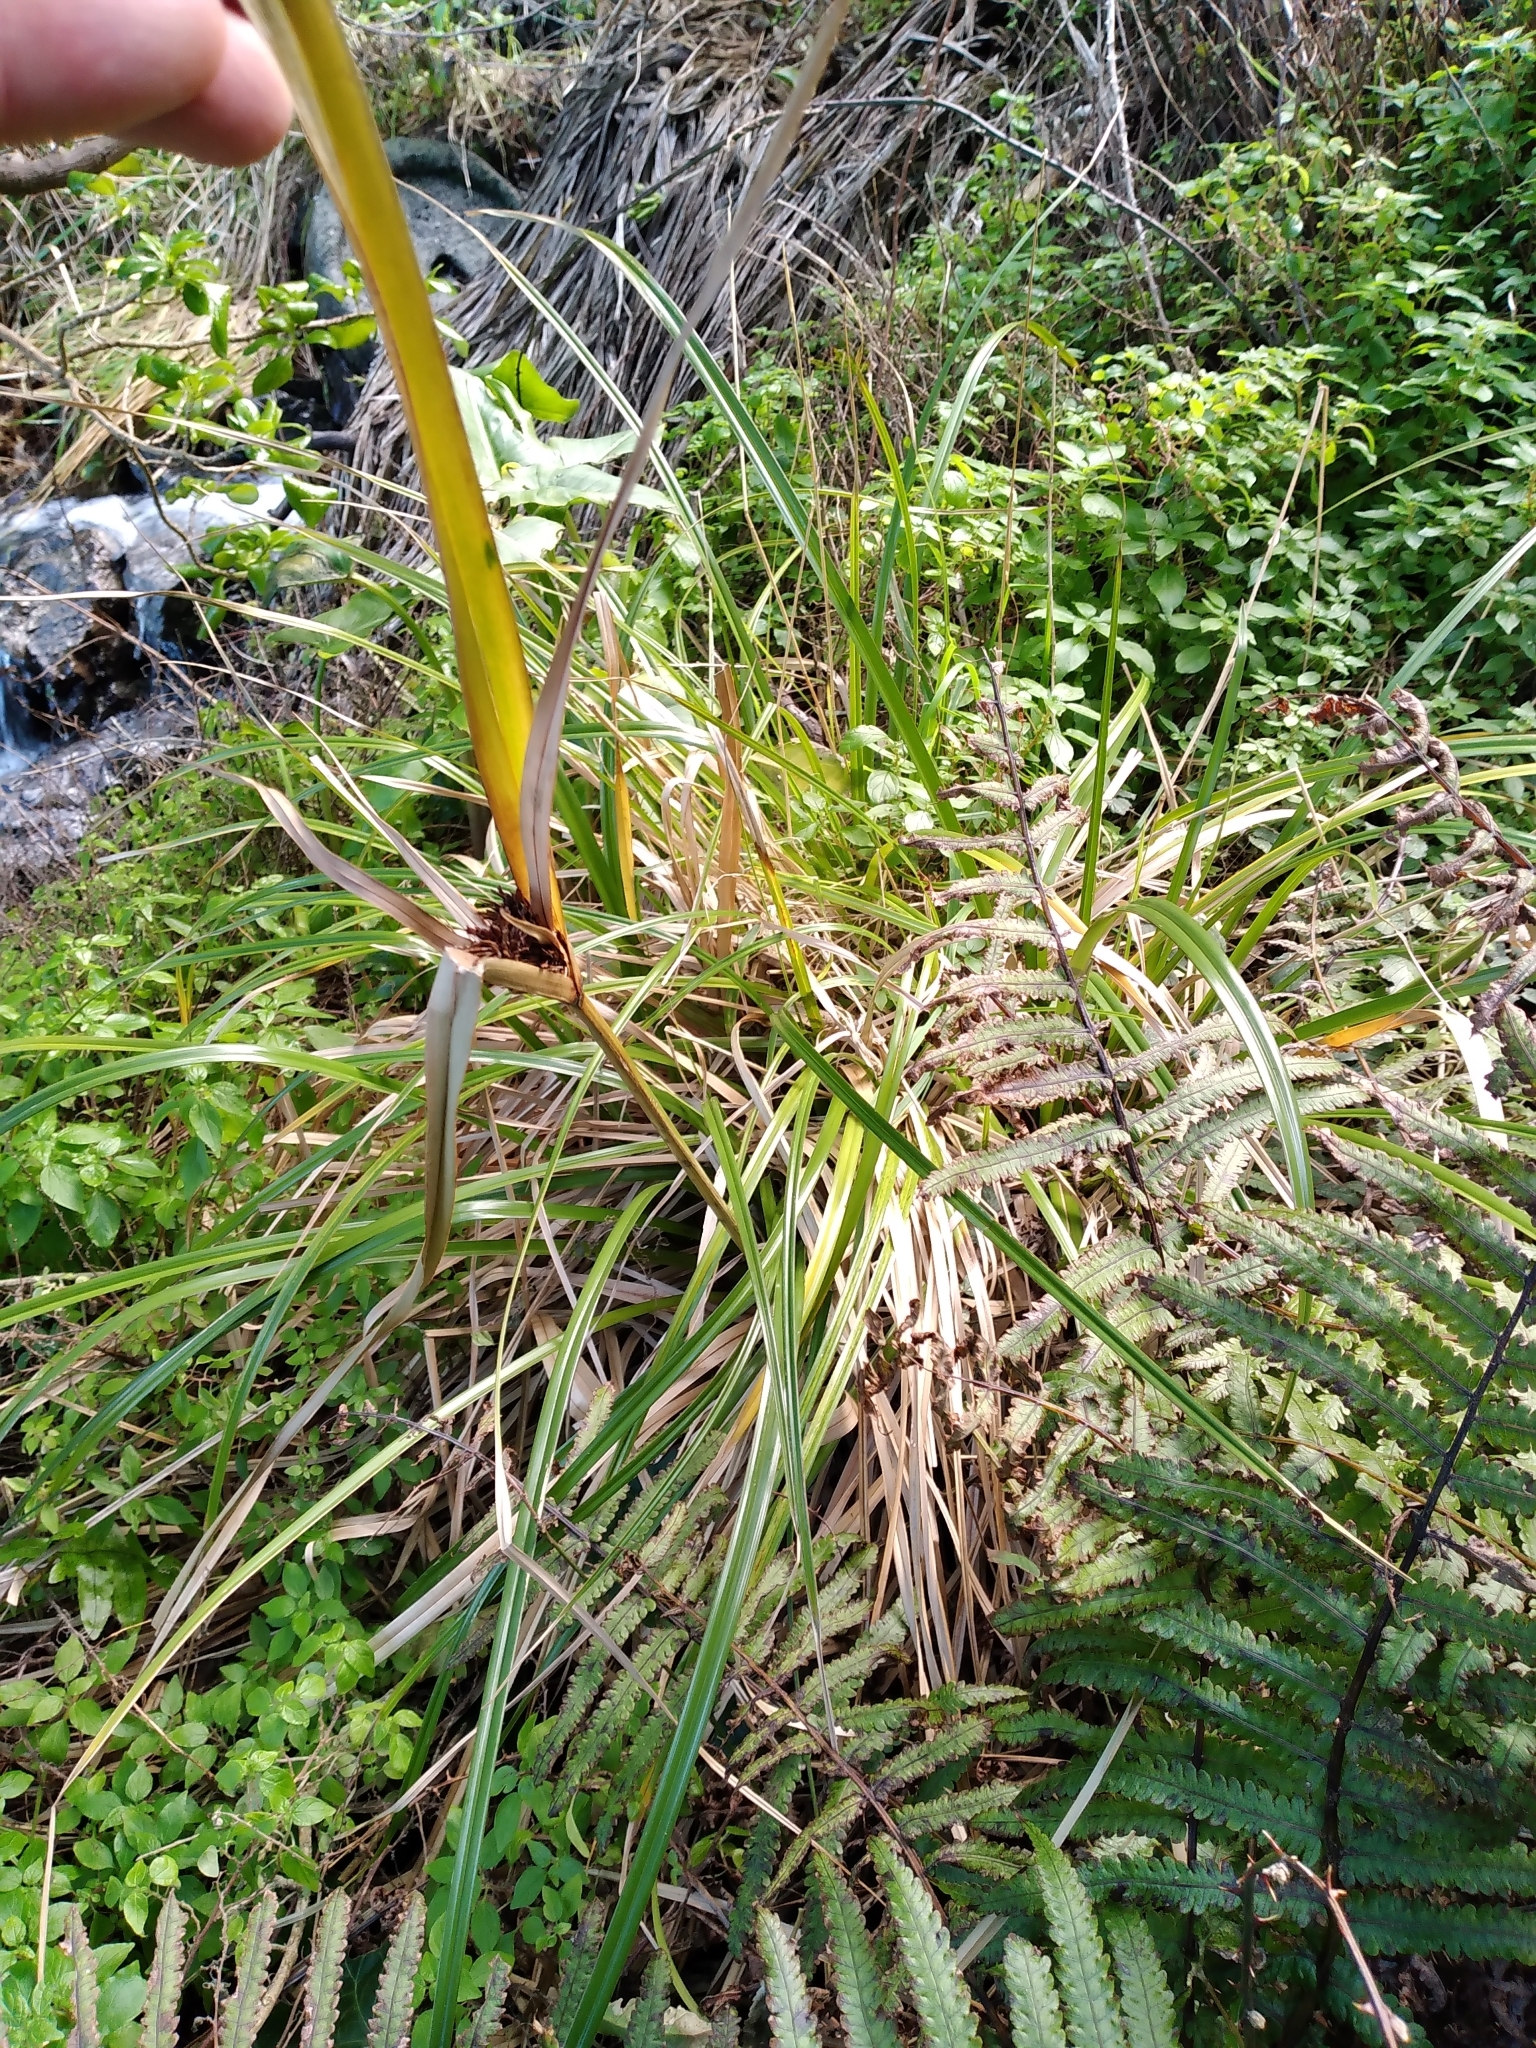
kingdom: Plantae
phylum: Tracheophyta
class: Liliopsida
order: Poales
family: Cyperaceae
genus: Cyperus
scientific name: Cyperus ustulatus
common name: Giant umbrella-sedge
